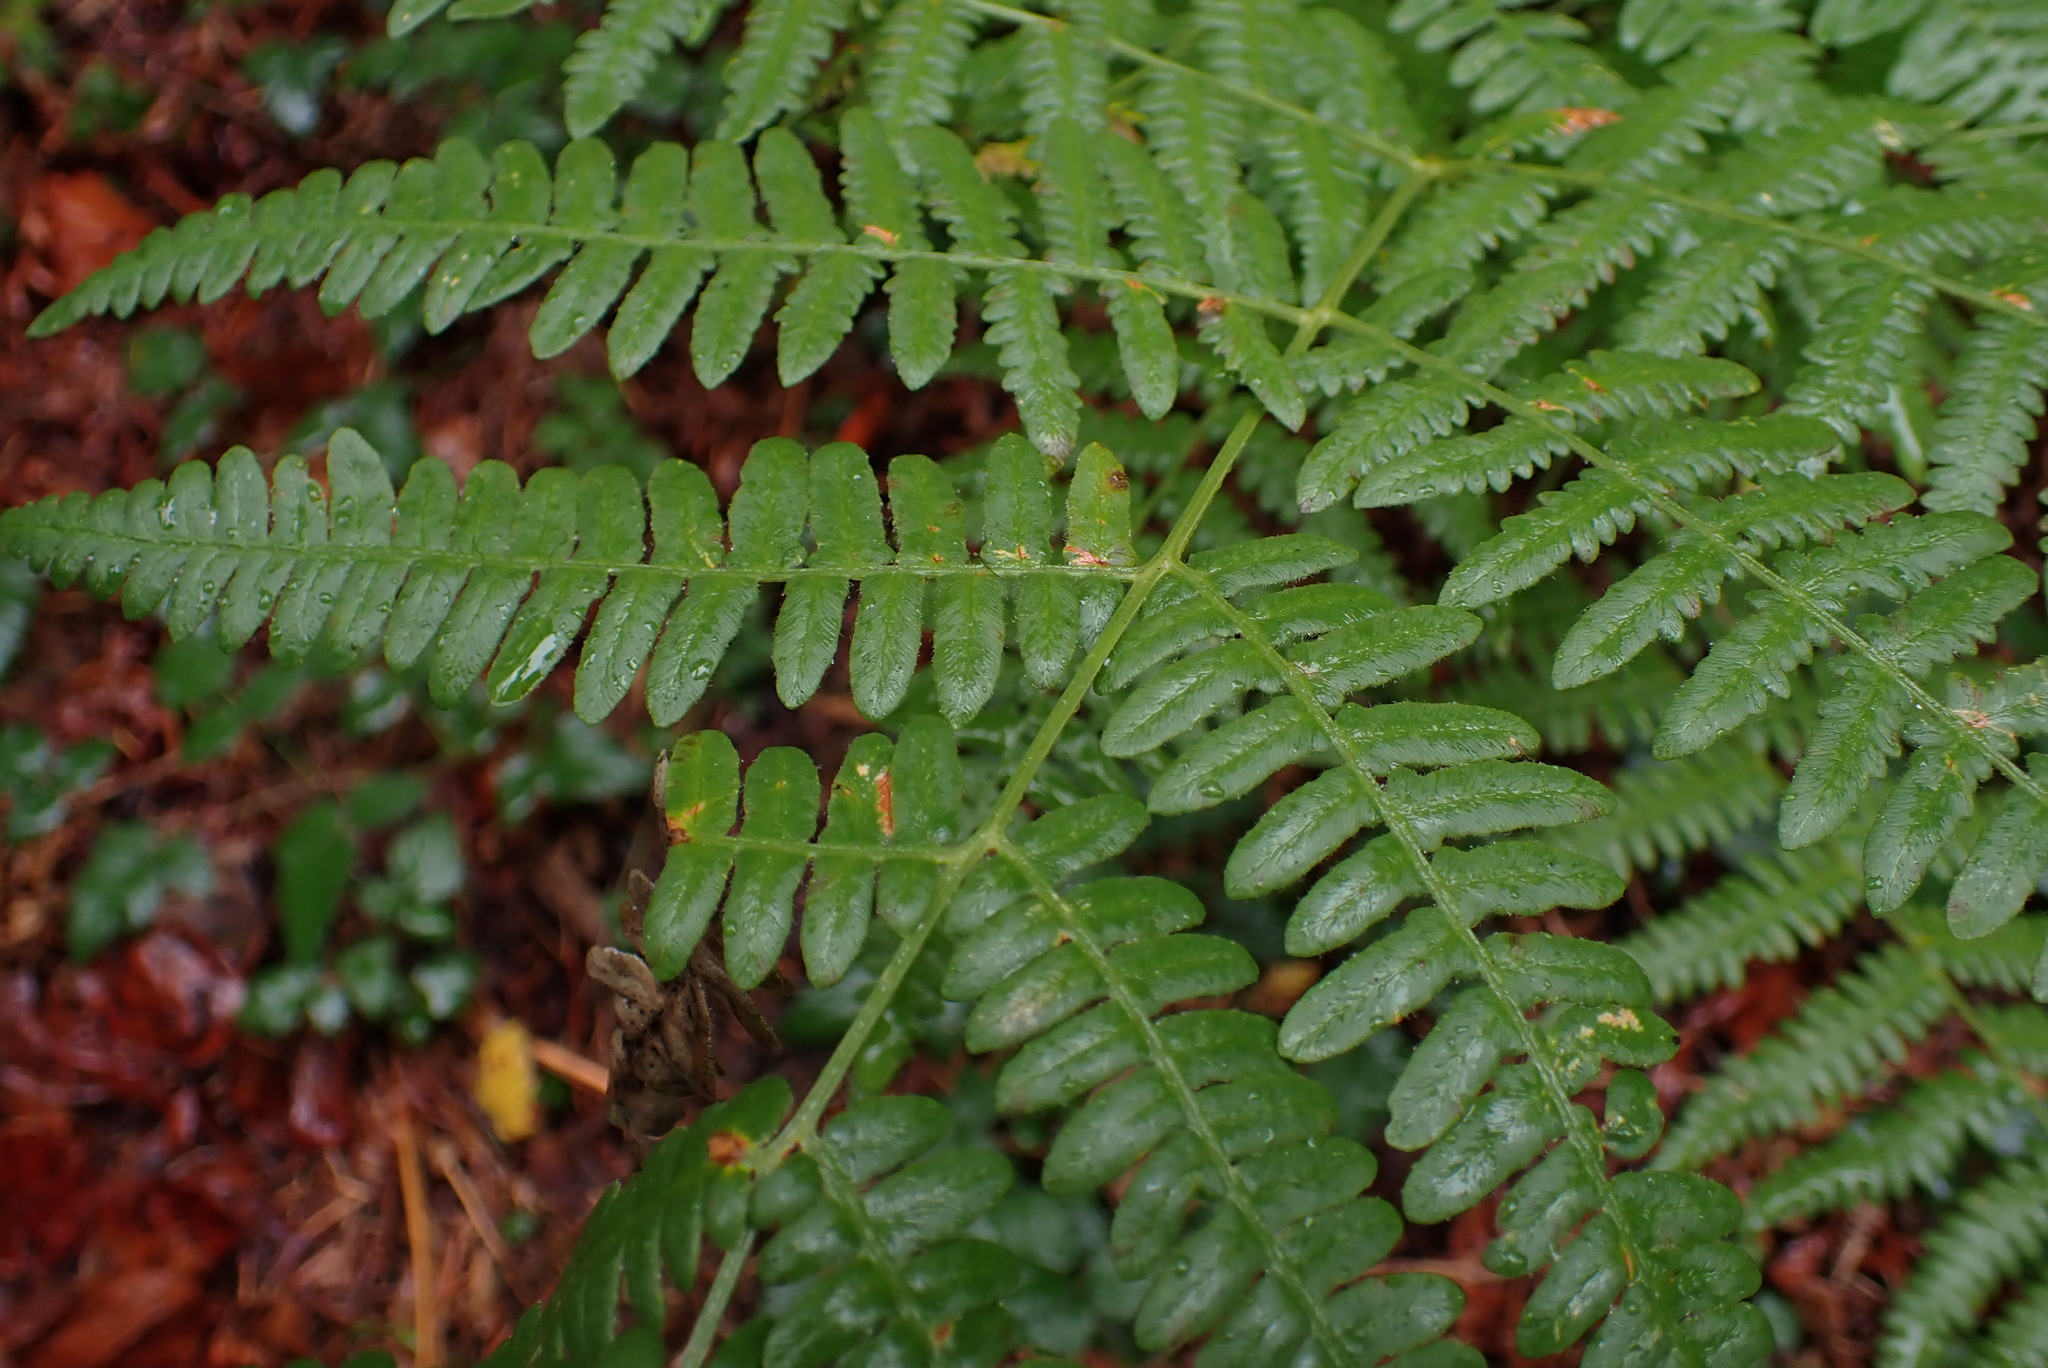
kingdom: Plantae
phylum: Tracheophyta
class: Polypodiopsida
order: Polypodiales
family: Dennstaedtiaceae
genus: Pteridium
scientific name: Pteridium aquilinum
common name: Bracken
